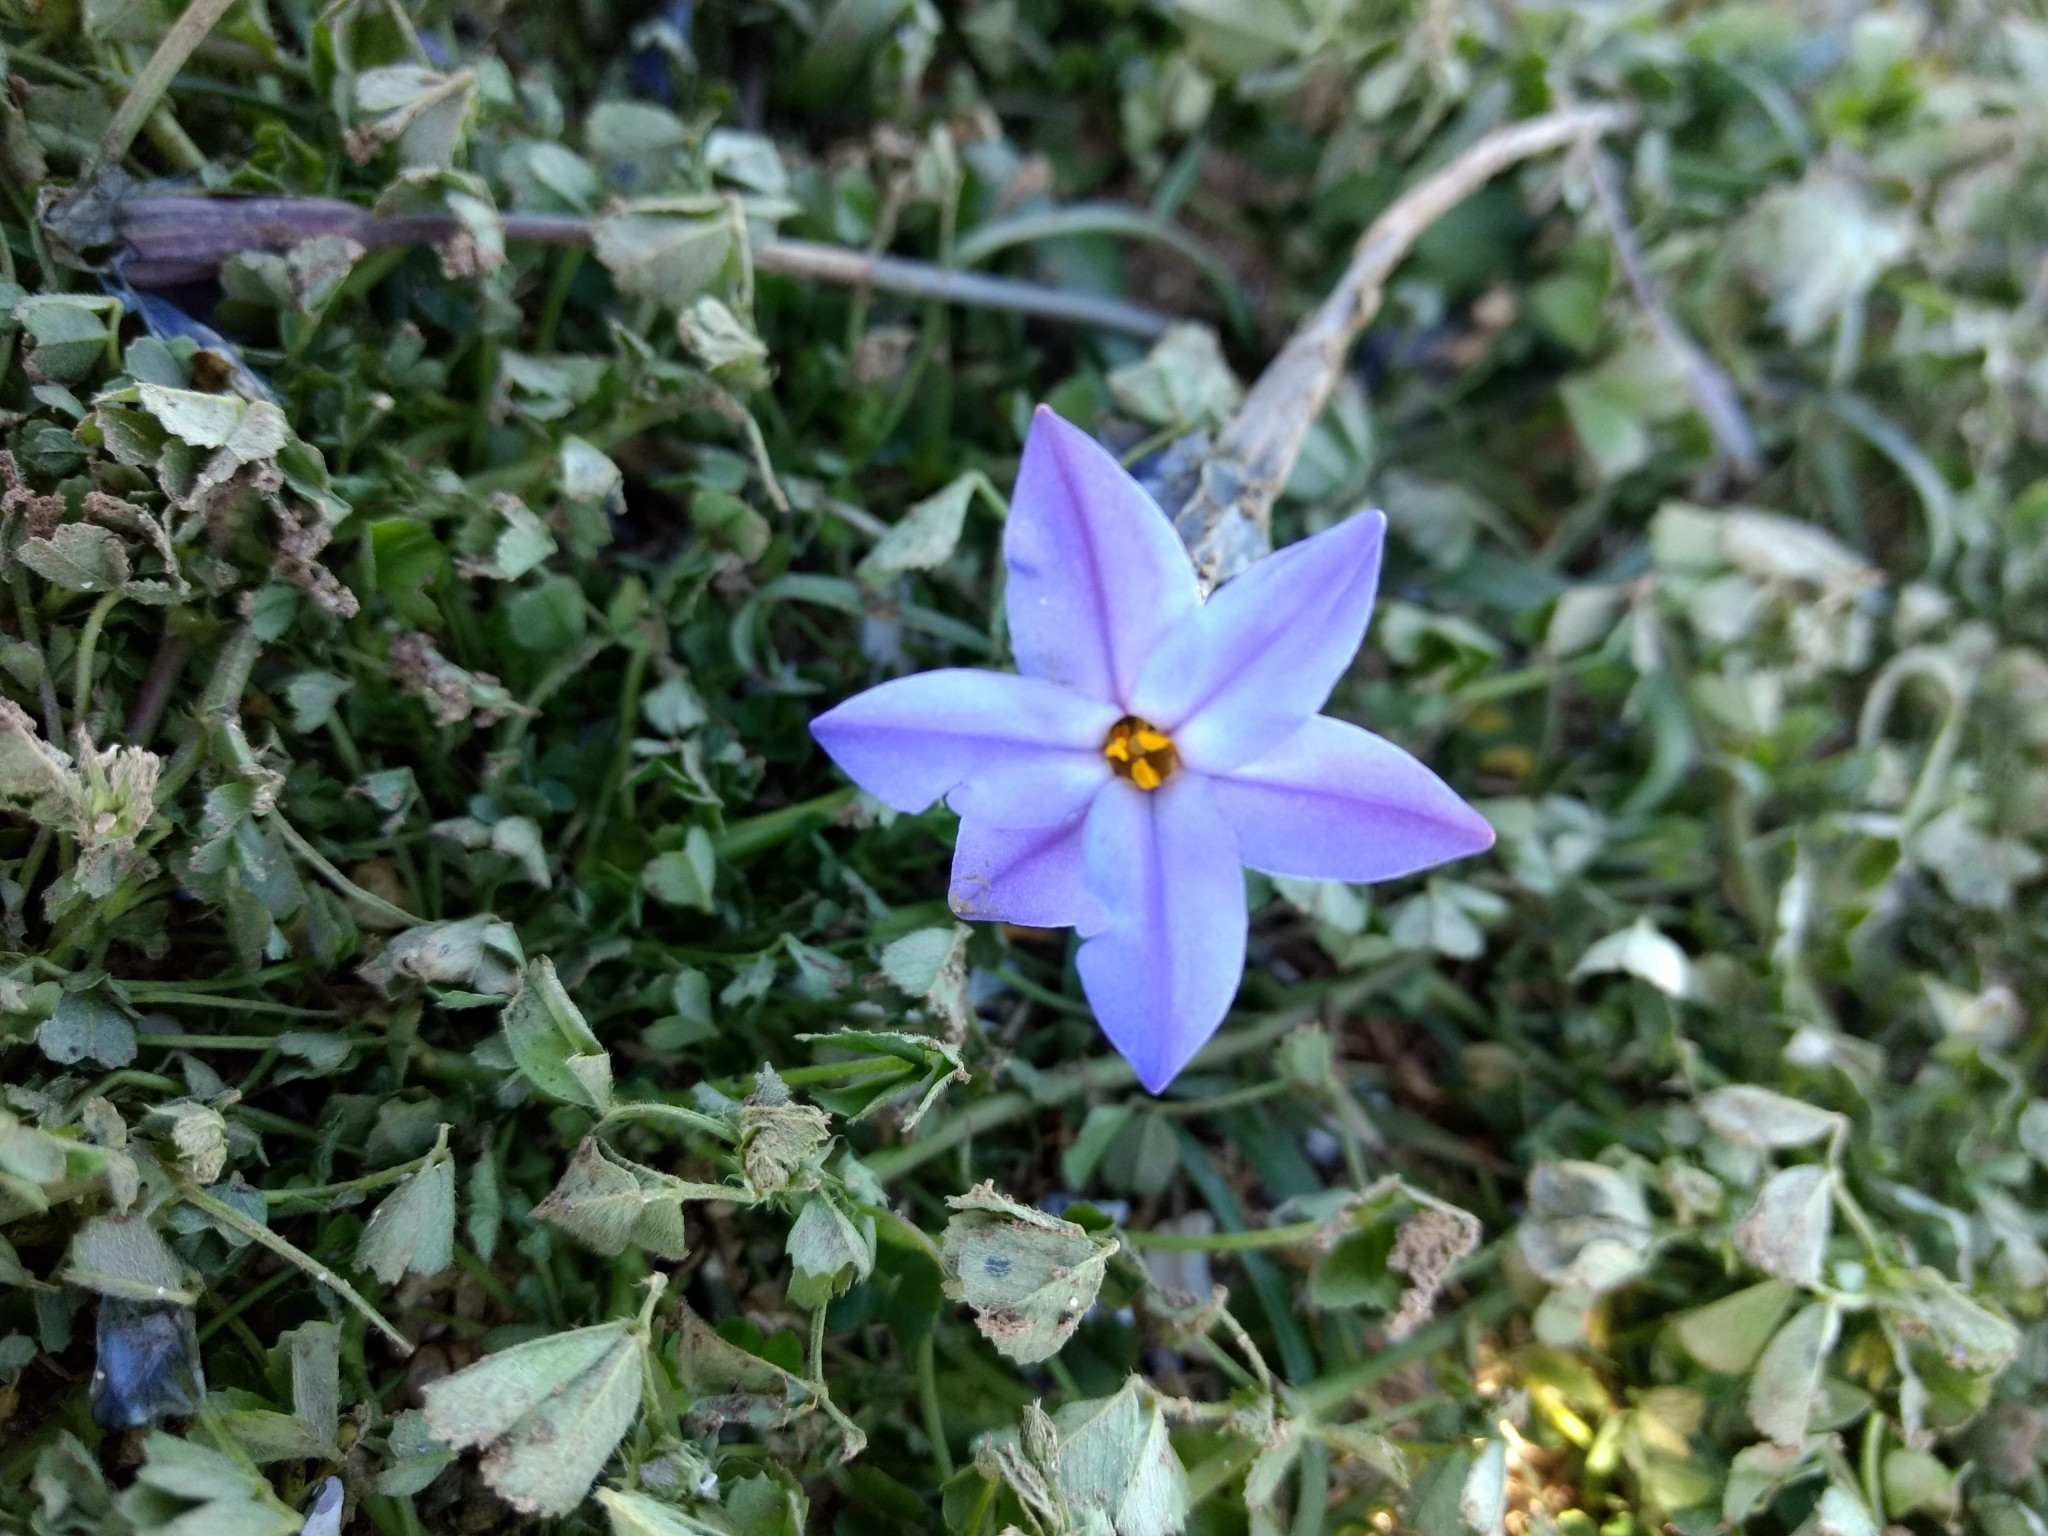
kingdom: Plantae
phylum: Tracheophyta
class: Liliopsida
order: Asparagales
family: Amaryllidaceae
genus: Ipheion
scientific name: Ipheion uniflorum
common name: Spring starflower
